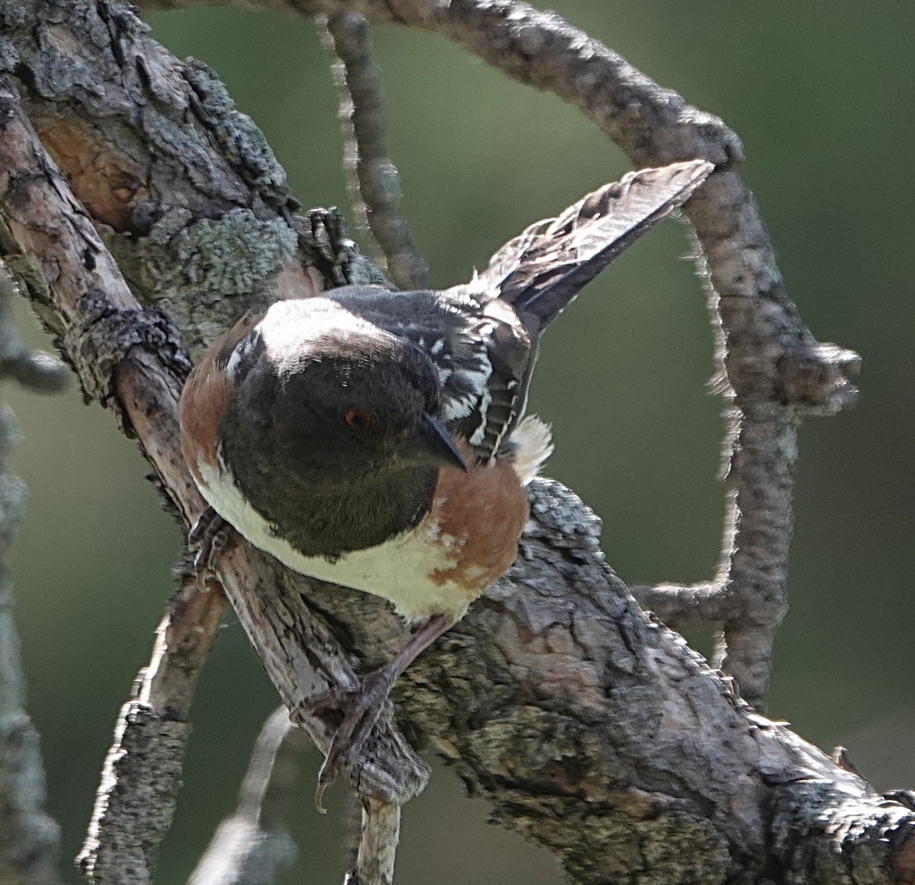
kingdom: Animalia
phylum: Chordata
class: Aves
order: Passeriformes
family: Passerellidae
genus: Pipilo
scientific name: Pipilo maculatus
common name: Spotted towhee
